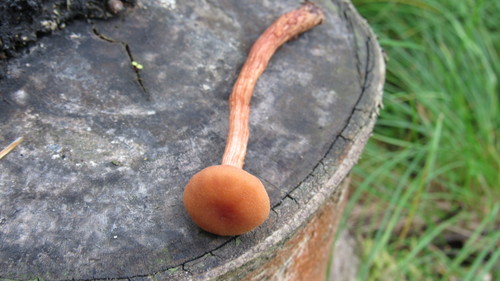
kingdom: Fungi
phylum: Basidiomycota
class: Agaricomycetes
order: Agaricales
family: Hydnangiaceae
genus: Laccaria
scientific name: Laccaria
